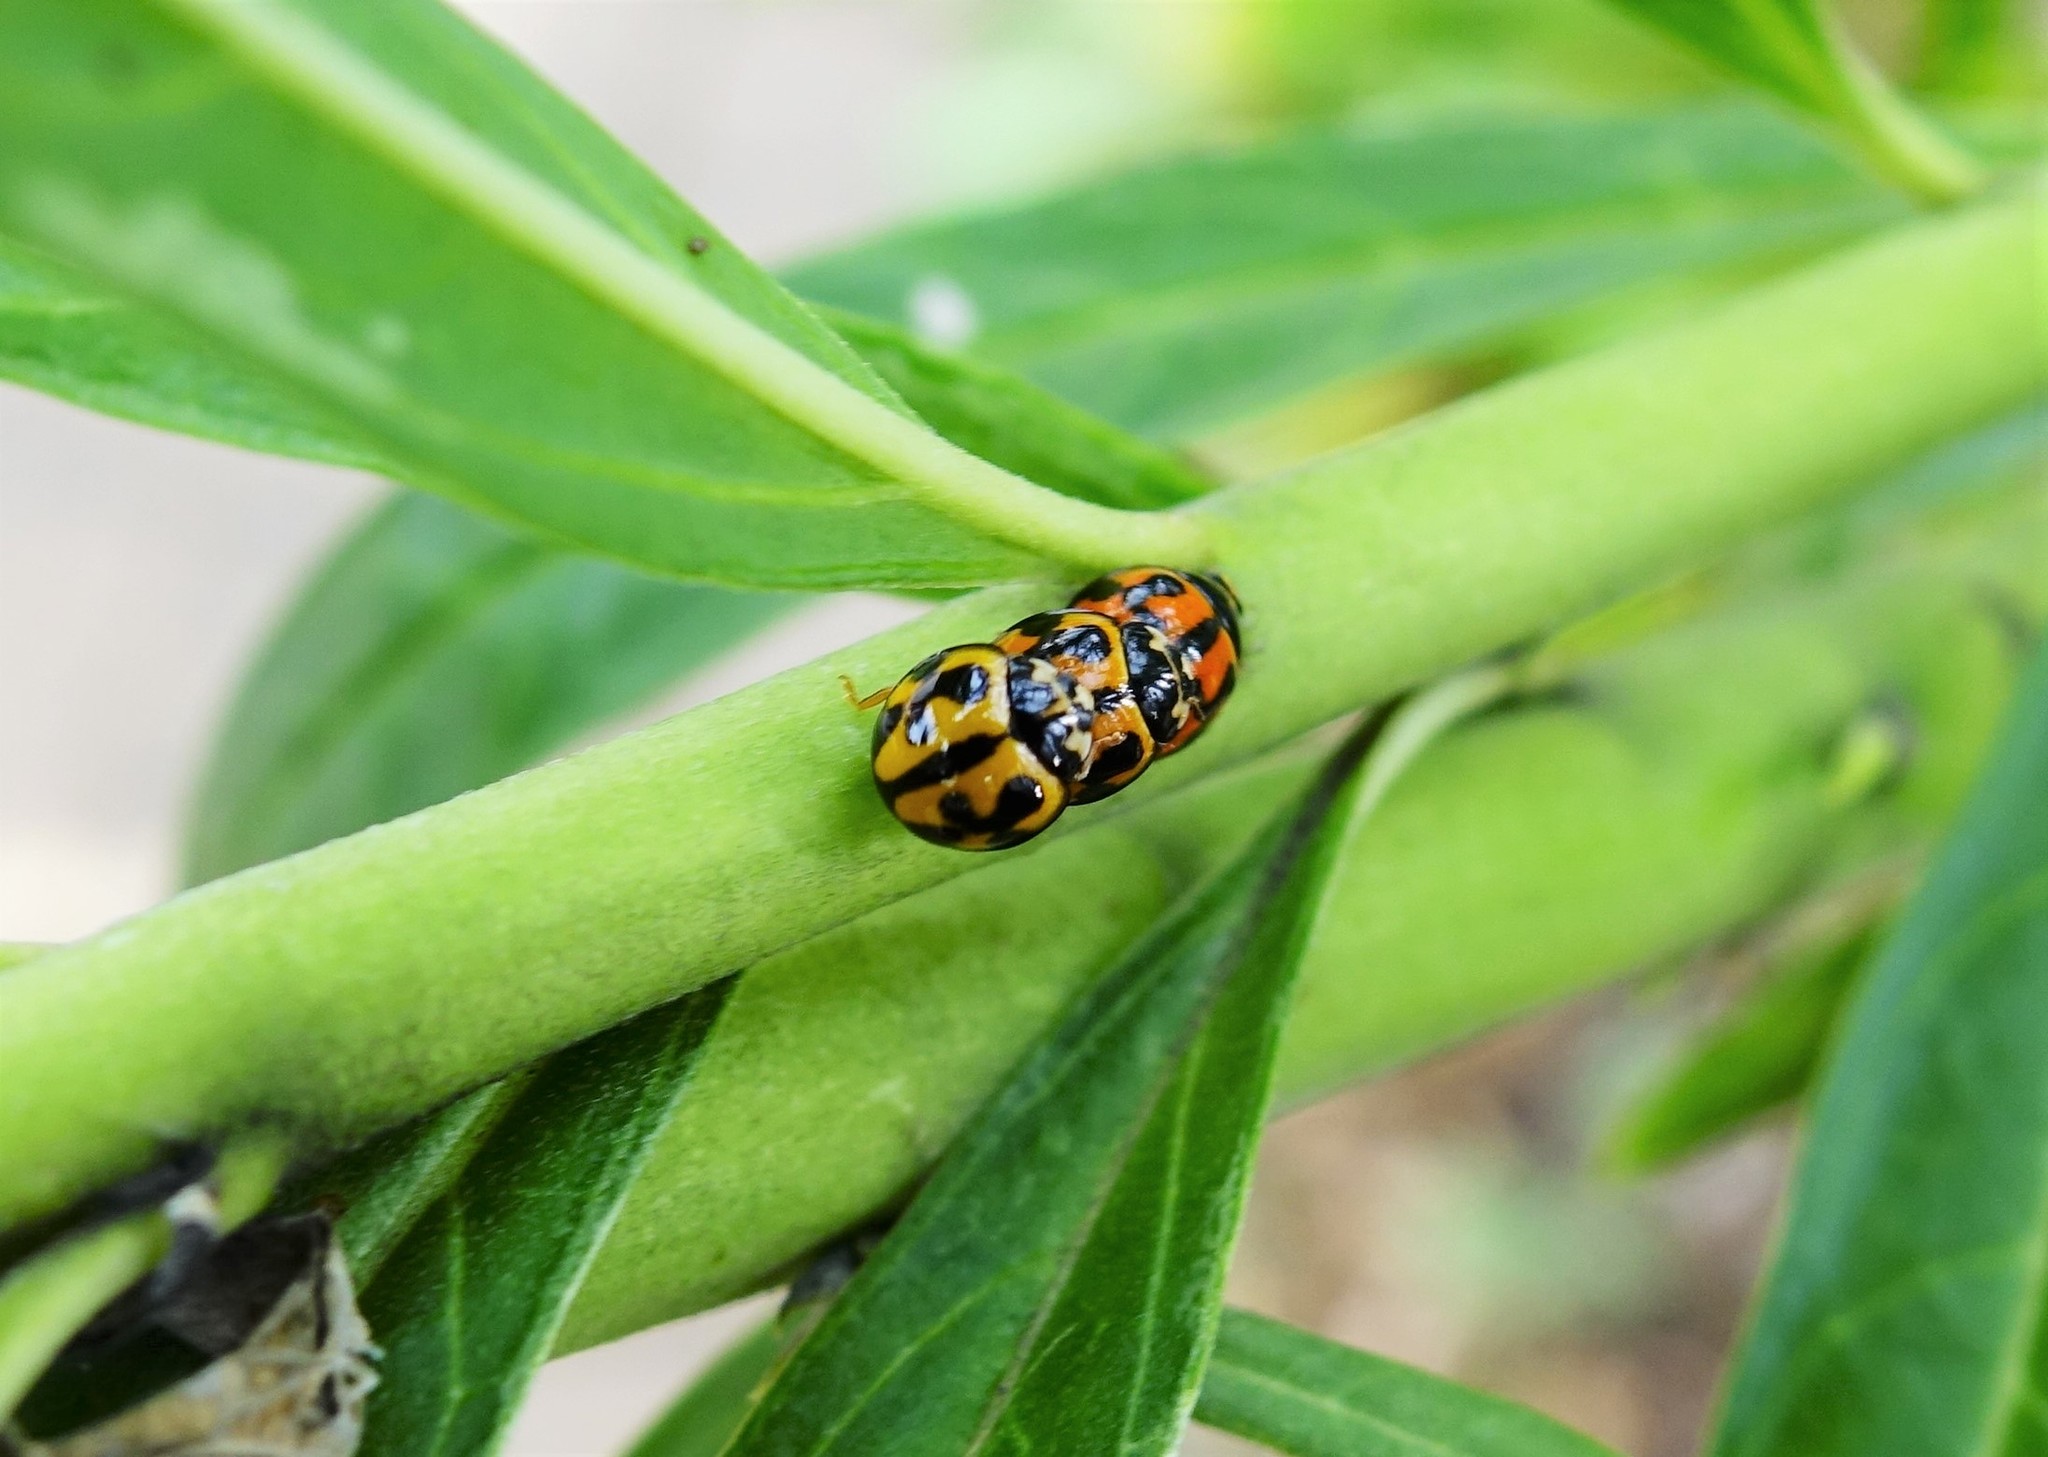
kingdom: Animalia
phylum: Arthropoda
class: Insecta
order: Coleoptera
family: Coccinellidae
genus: Coelophora
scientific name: Coelophora inaequalis
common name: Common australian lady beetle
